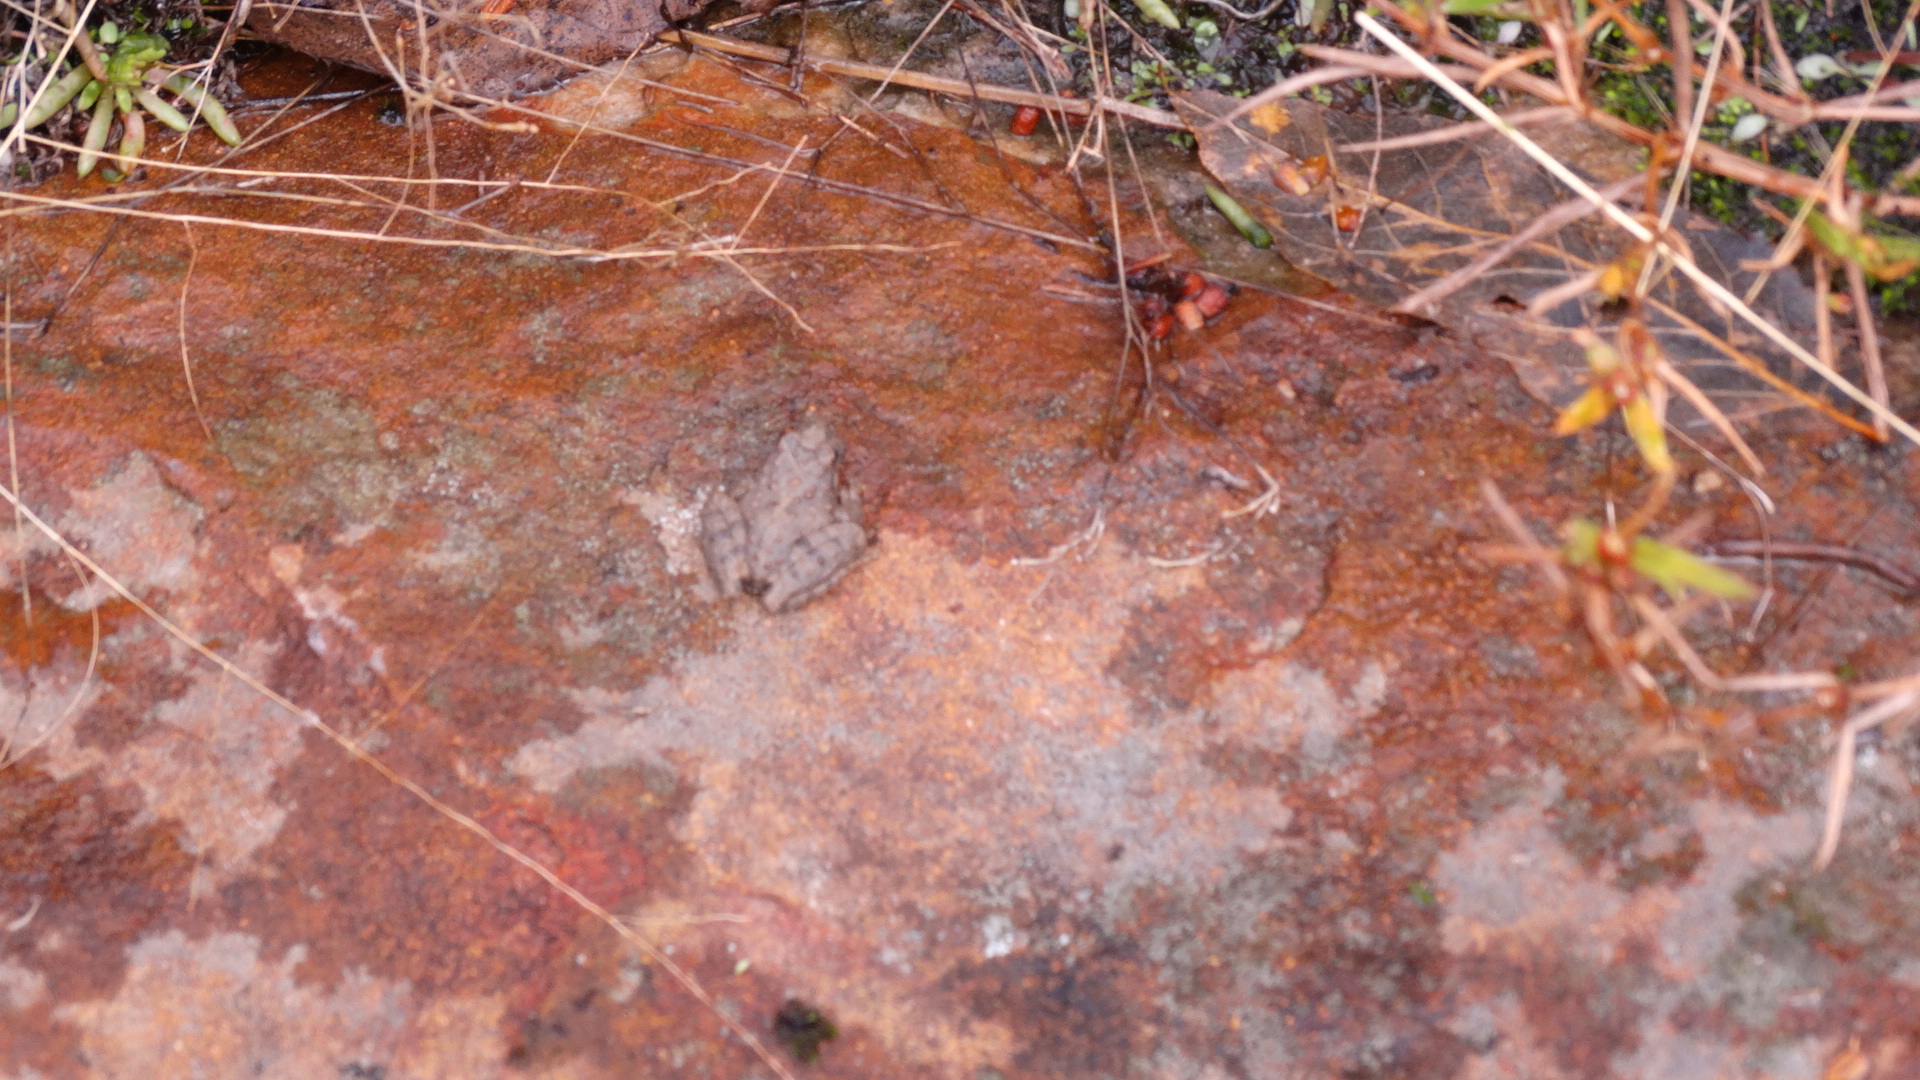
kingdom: Animalia
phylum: Chordata
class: Amphibia
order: Anura
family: Hylidae
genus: Acris
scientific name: Acris blanchardi
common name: Blanchard's cricket frog
